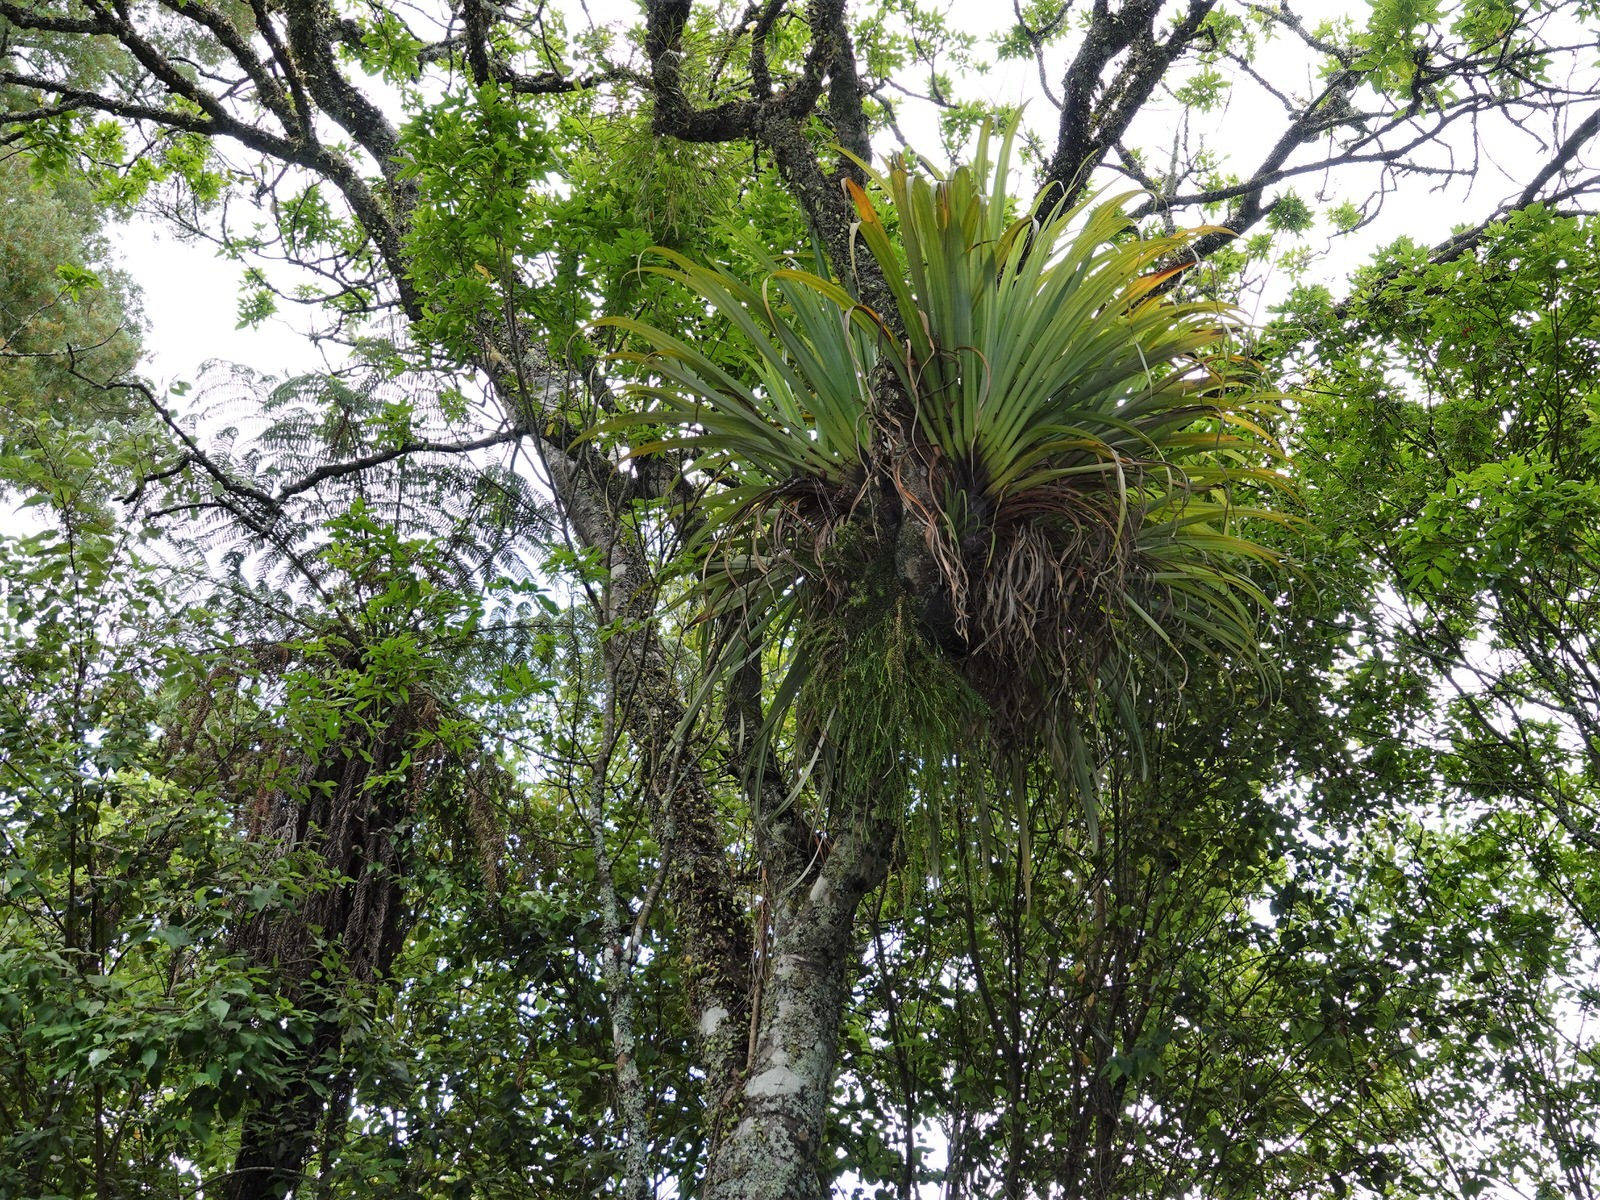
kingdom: Plantae
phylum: Tracheophyta
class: Lycopodiopsida
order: Lycopodiales
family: Lycopodiaceae
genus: Phlegmariurus
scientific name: Phlegmariurus billardierei
